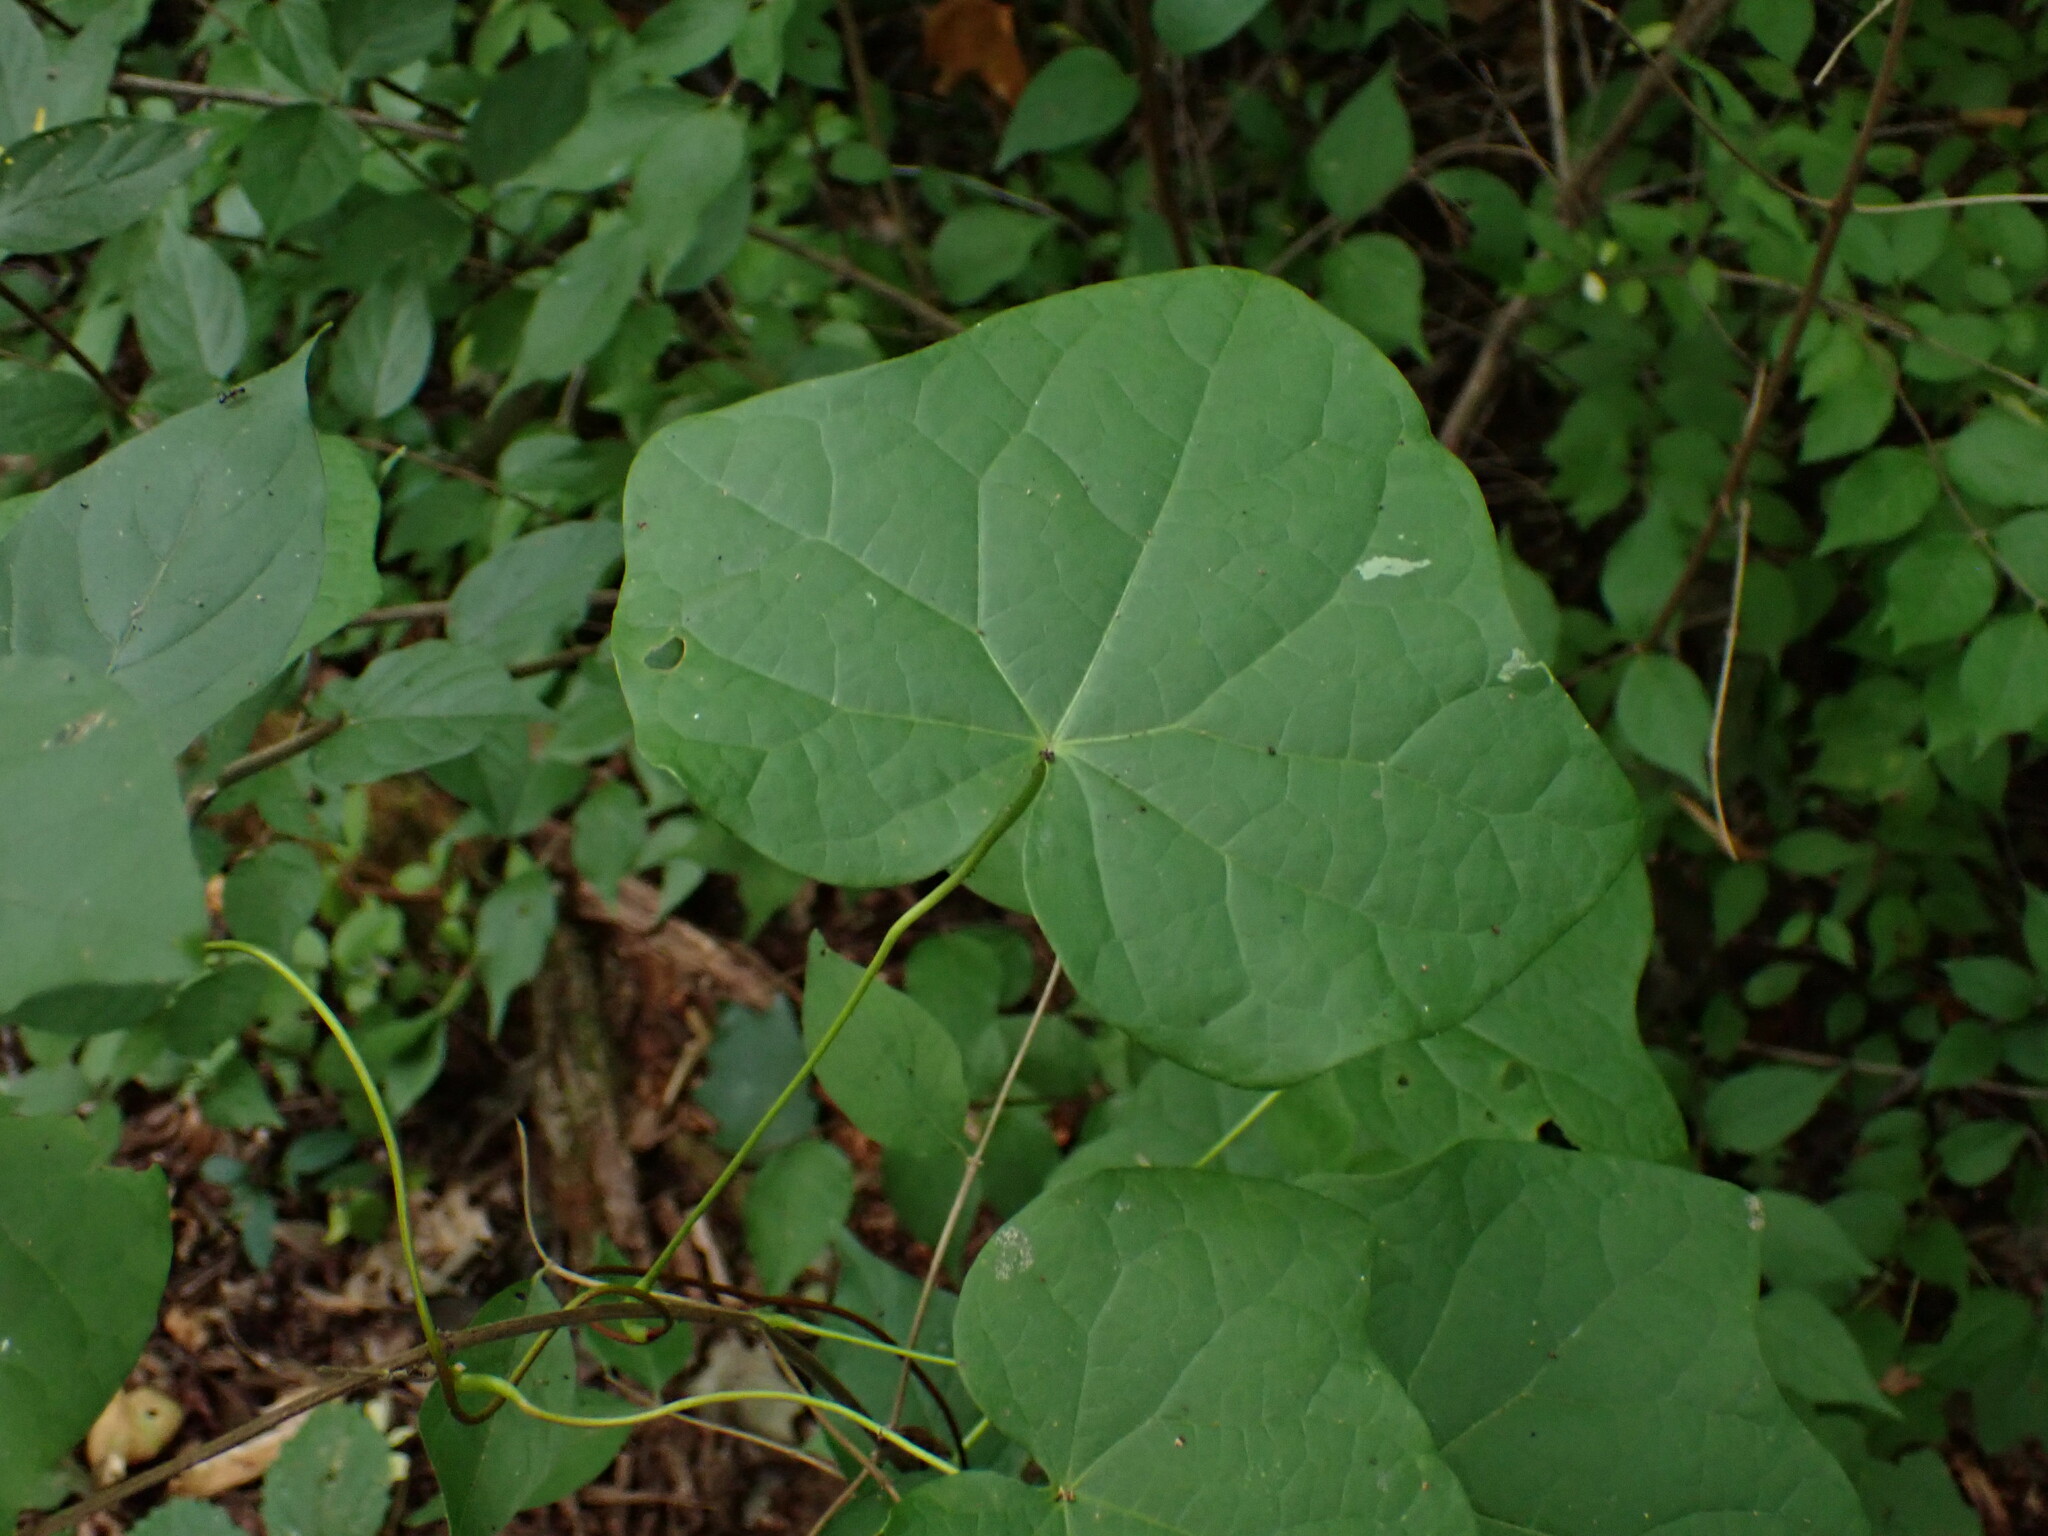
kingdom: Plantae
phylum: Tracheophyta
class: Magnoliopsida
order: Ranunculales
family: Menispermaceae
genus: Menispermum
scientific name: Menispermum canadense
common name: Moonseed
